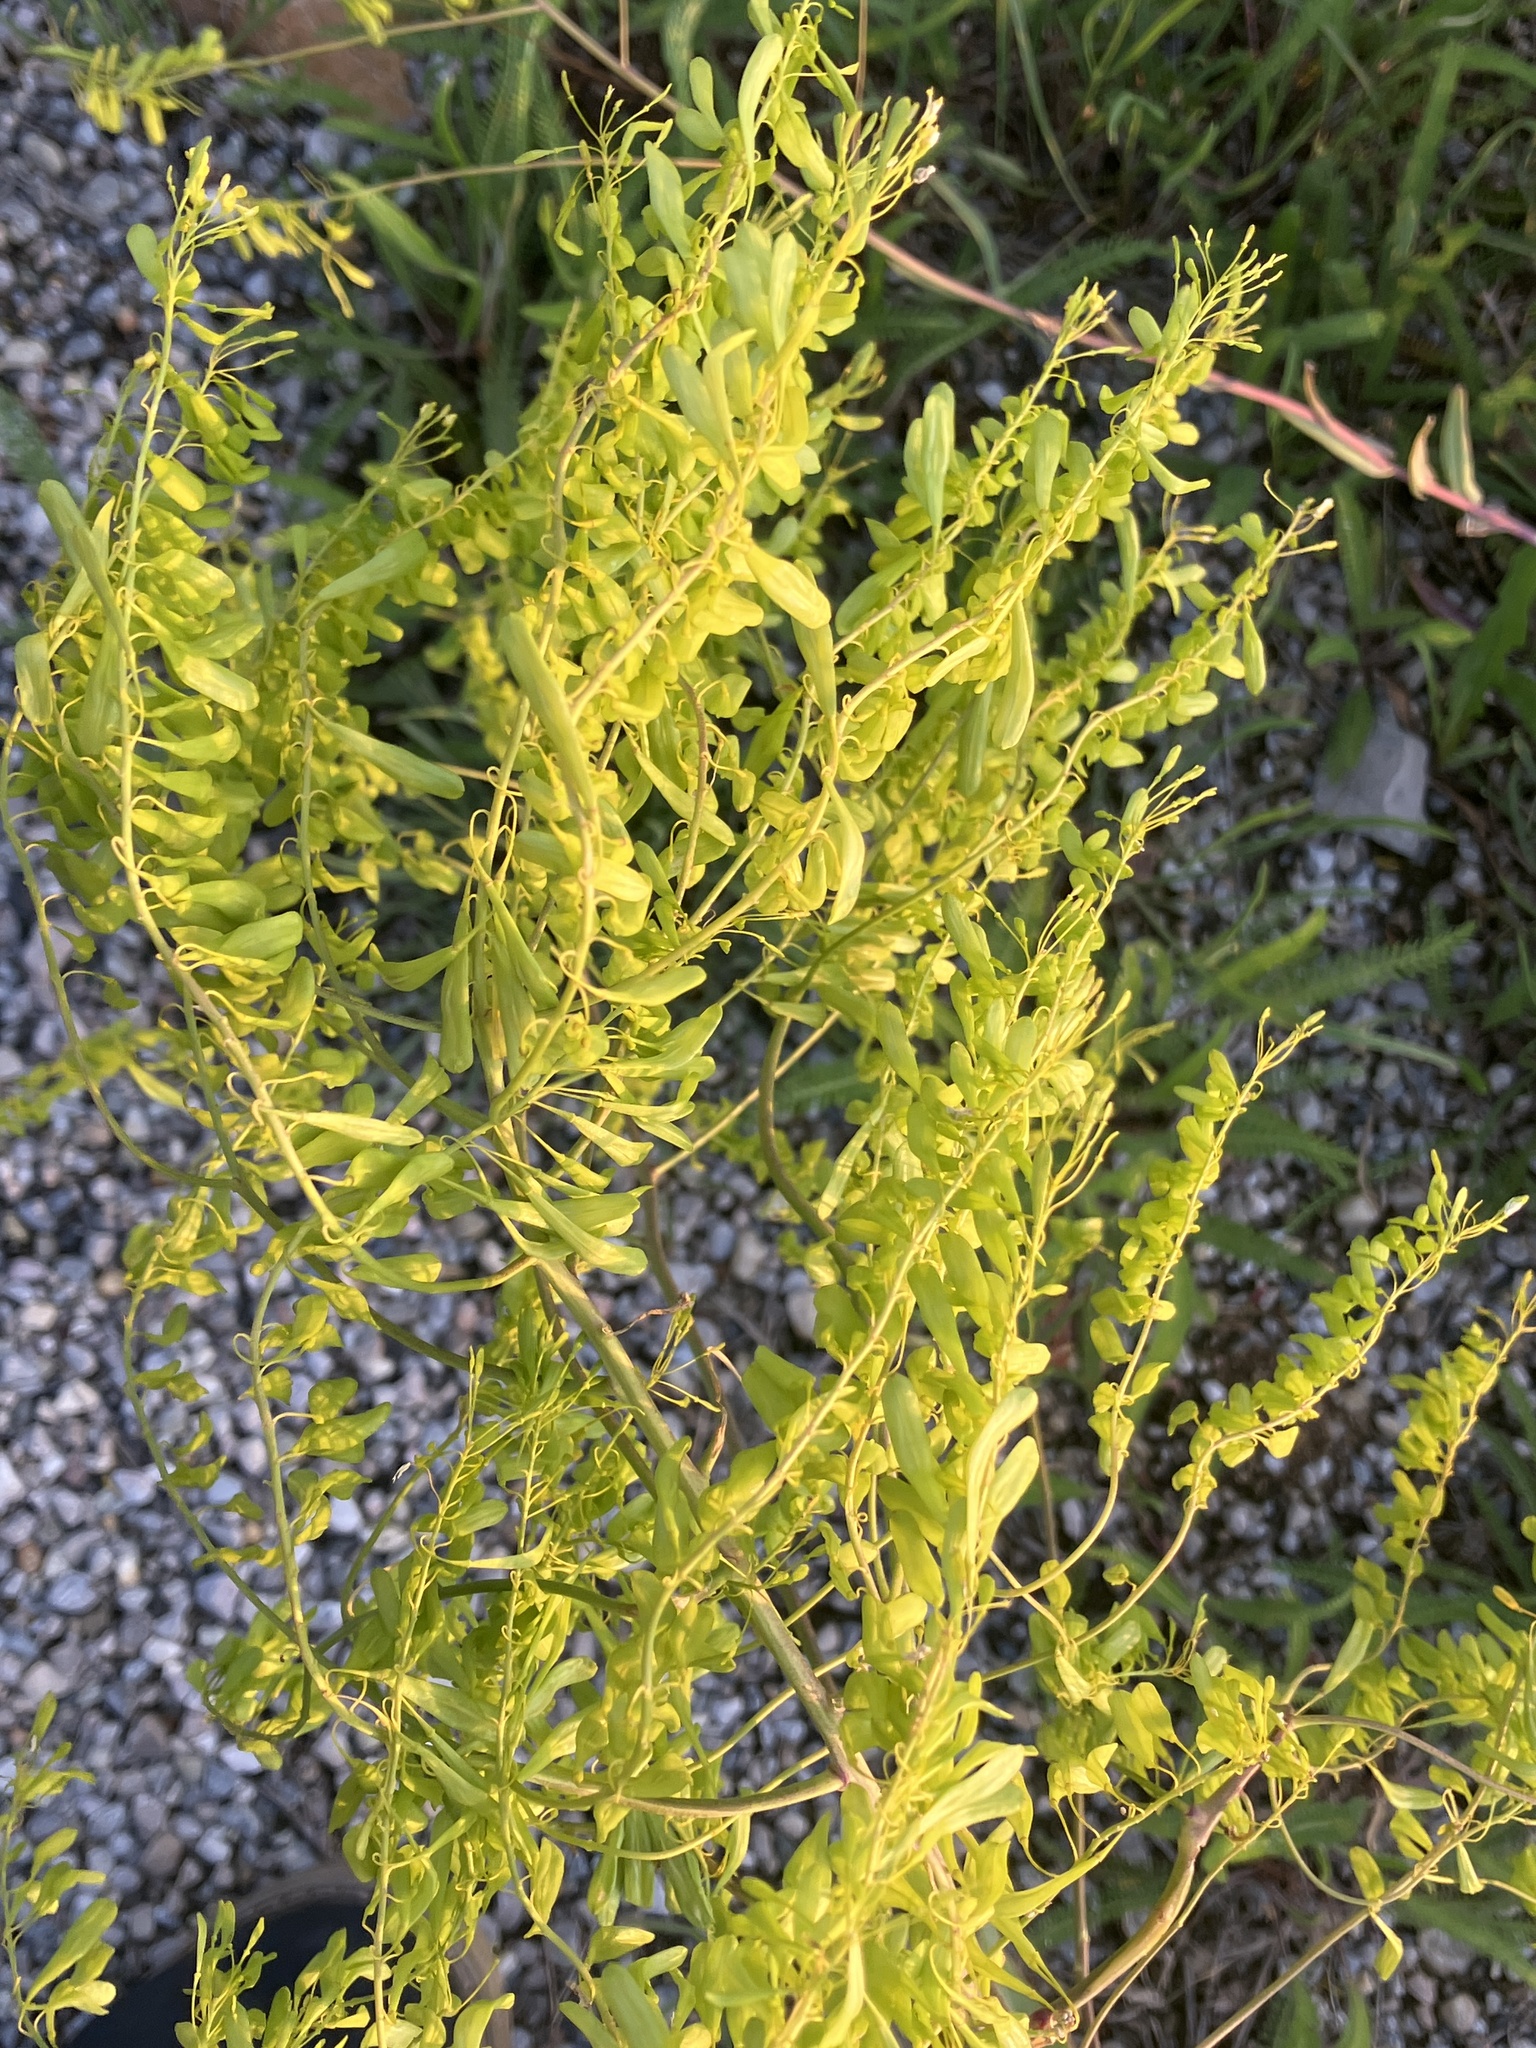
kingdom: Plantae
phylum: Tracheophyta
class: Magnoliopsida
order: Brassicales
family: Brassicaceae
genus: Isatis
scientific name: Isatis tinctoria
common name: Woad
